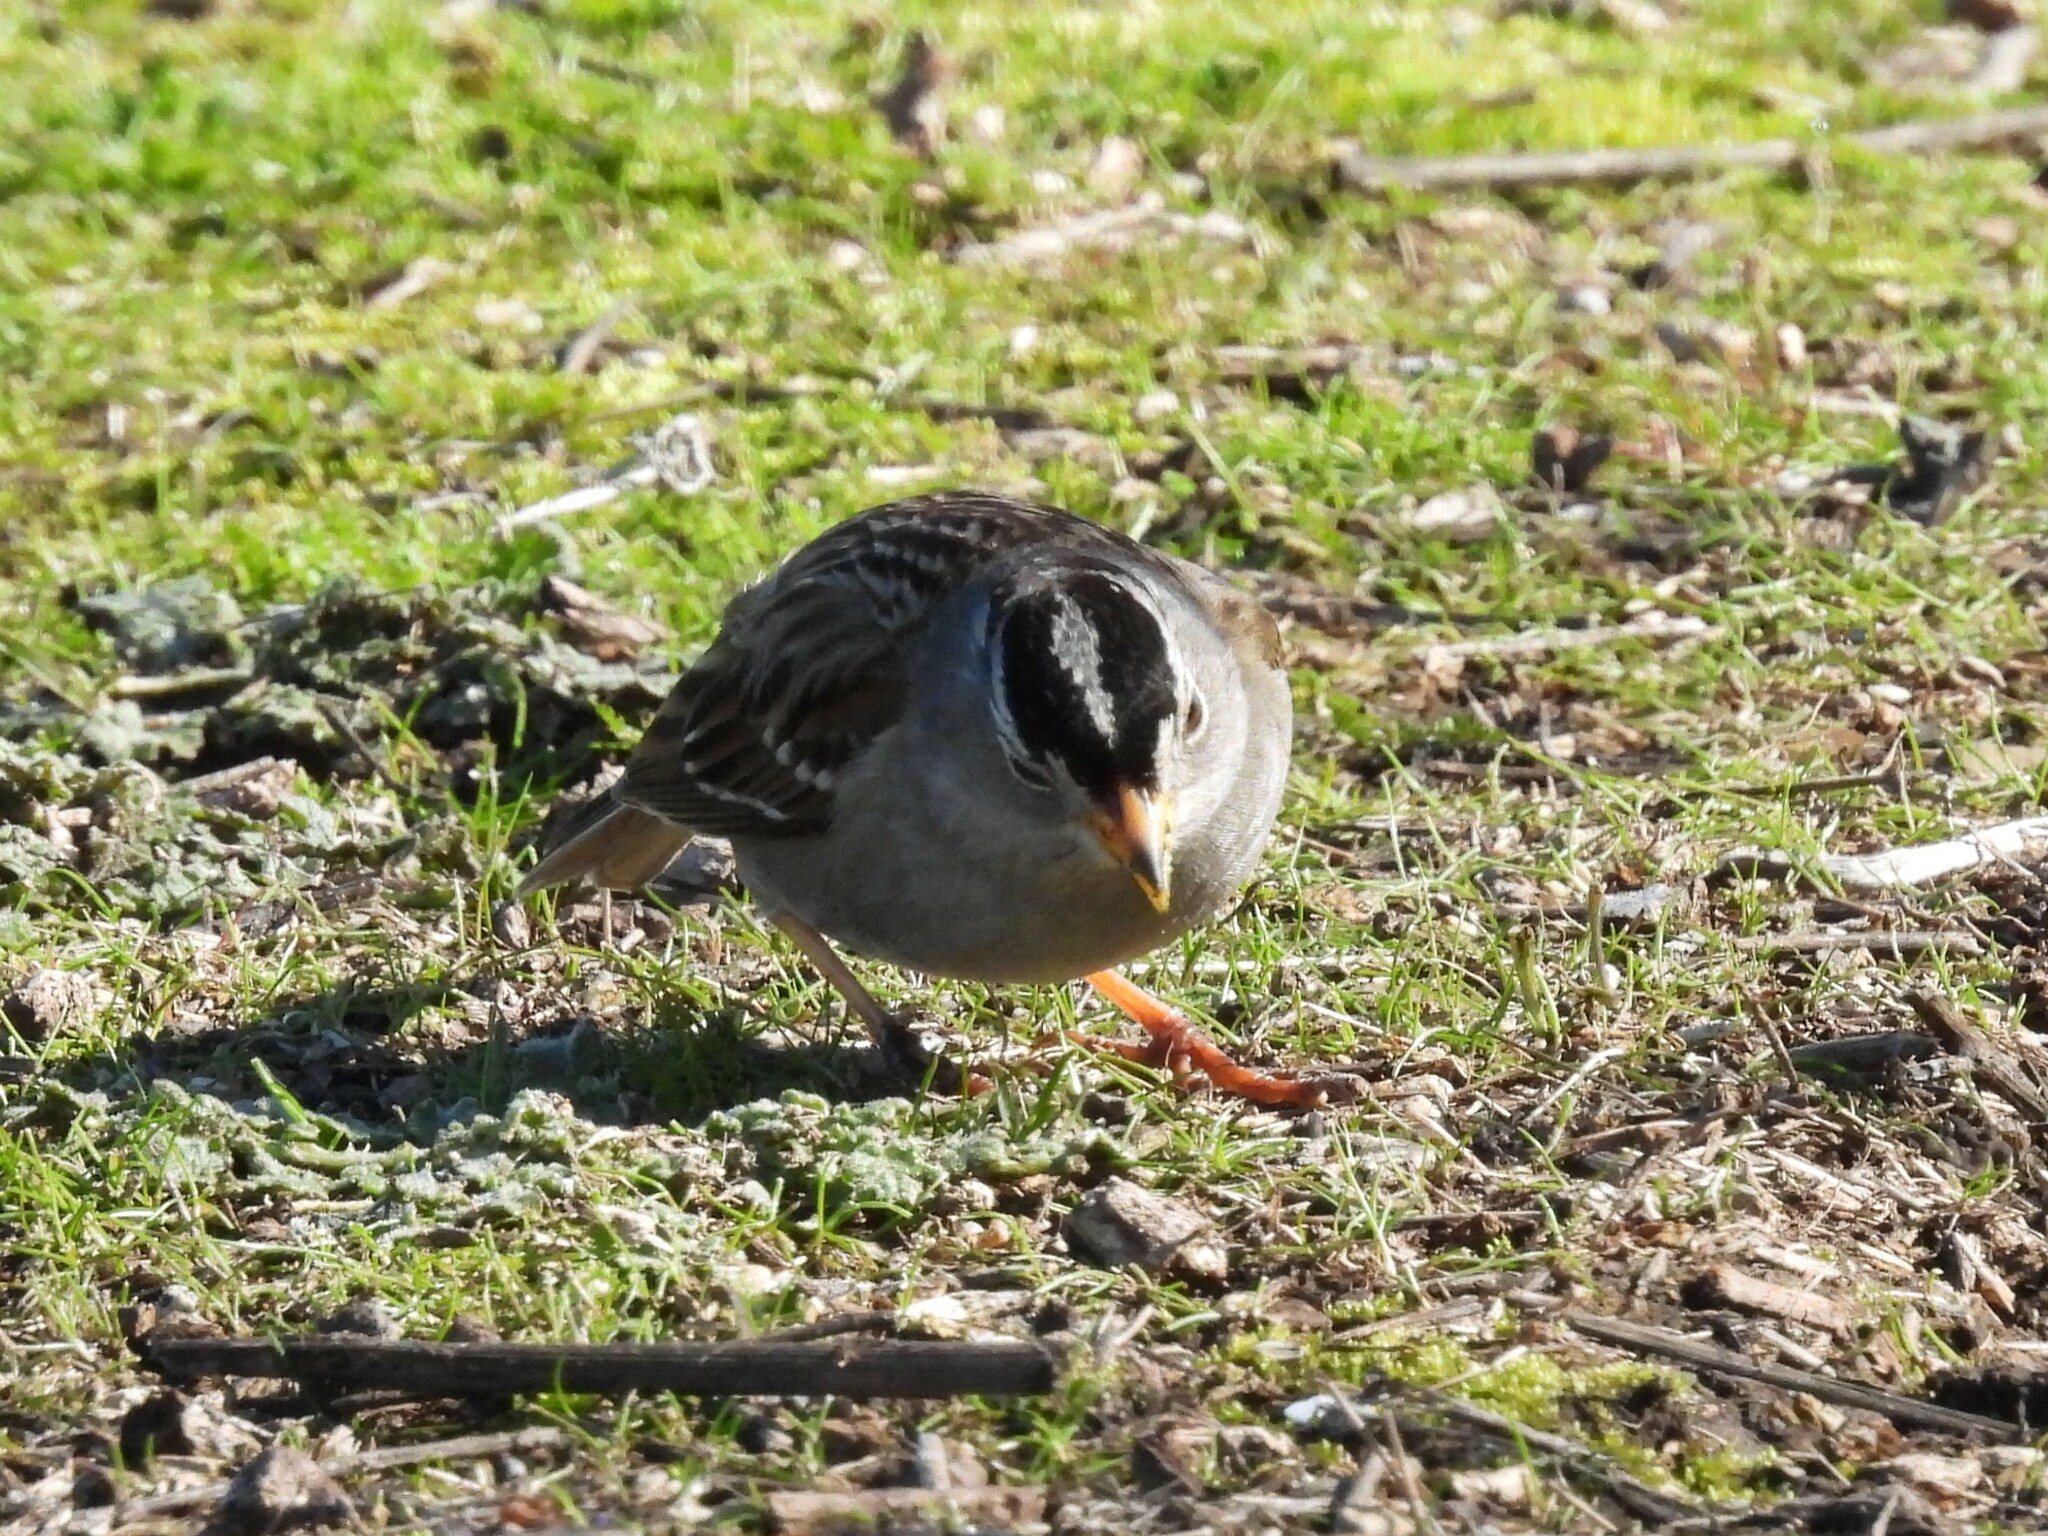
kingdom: Animalia
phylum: Chordata
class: Aves
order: Passeriformes
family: Passerellidae
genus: Zonotrichia
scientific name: Zonotrichia leucophrys
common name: White-crowned sparrow
